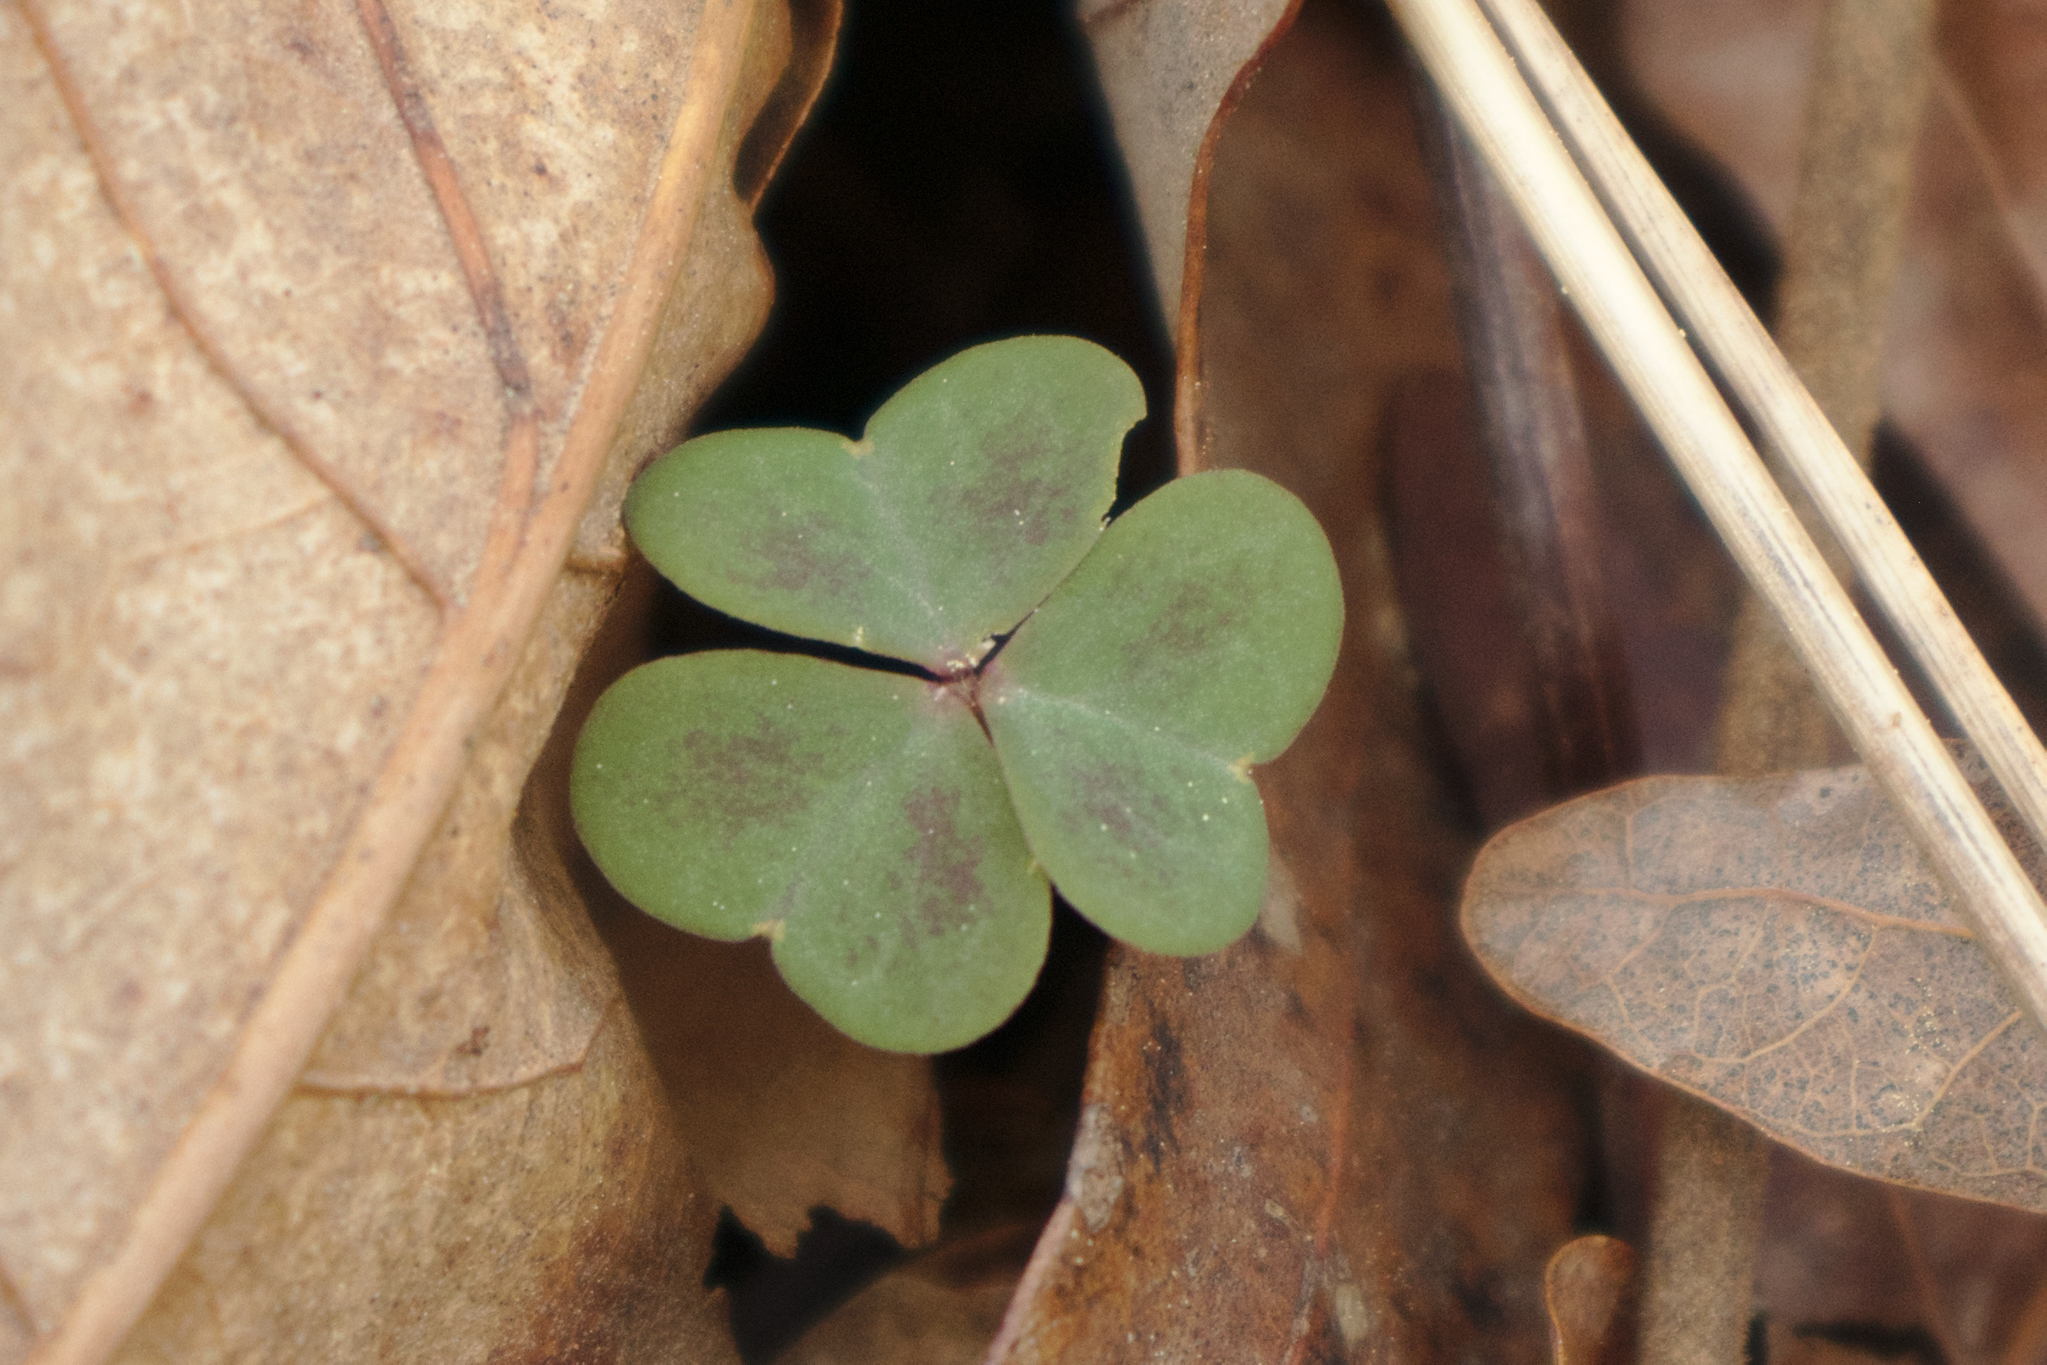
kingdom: Plantae
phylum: Tracheophyta
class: Magnoliopsida
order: Oxalidales
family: Oxalidaceae
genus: Oxalis
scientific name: Oxalis violacea
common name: Violet wood-sorrel
